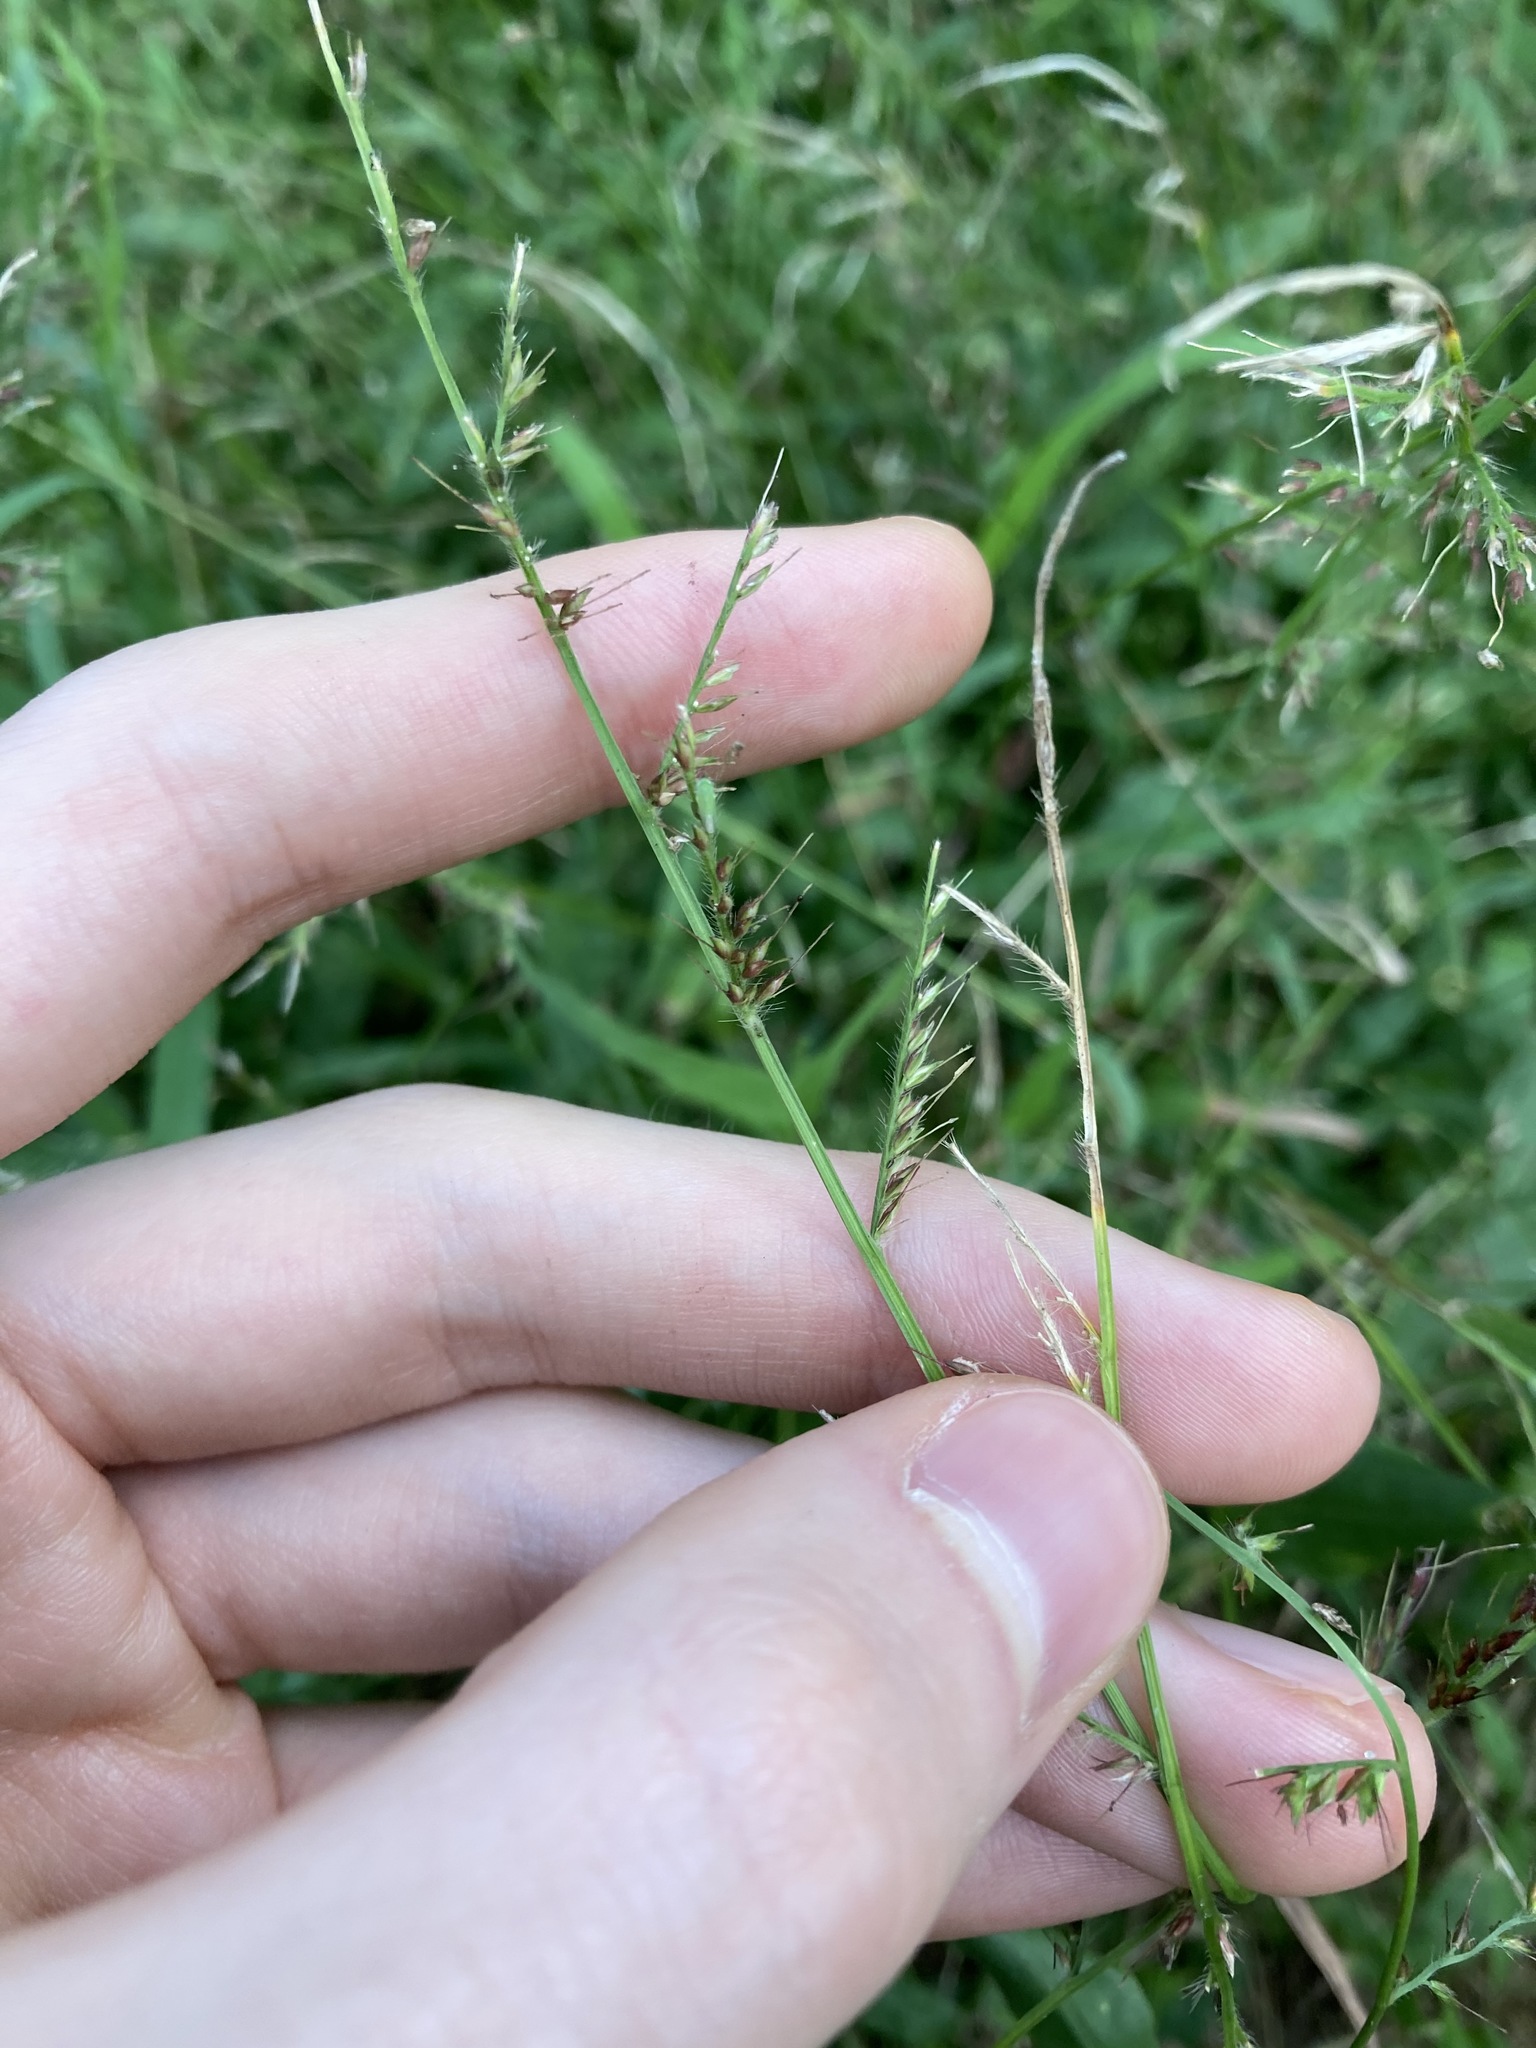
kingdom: Plantae
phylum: Tracheophyta
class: Liliopsida
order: Poales
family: Poaceae
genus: Oplismenus
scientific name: Oplismenus hirtellus
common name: Basketgrass
